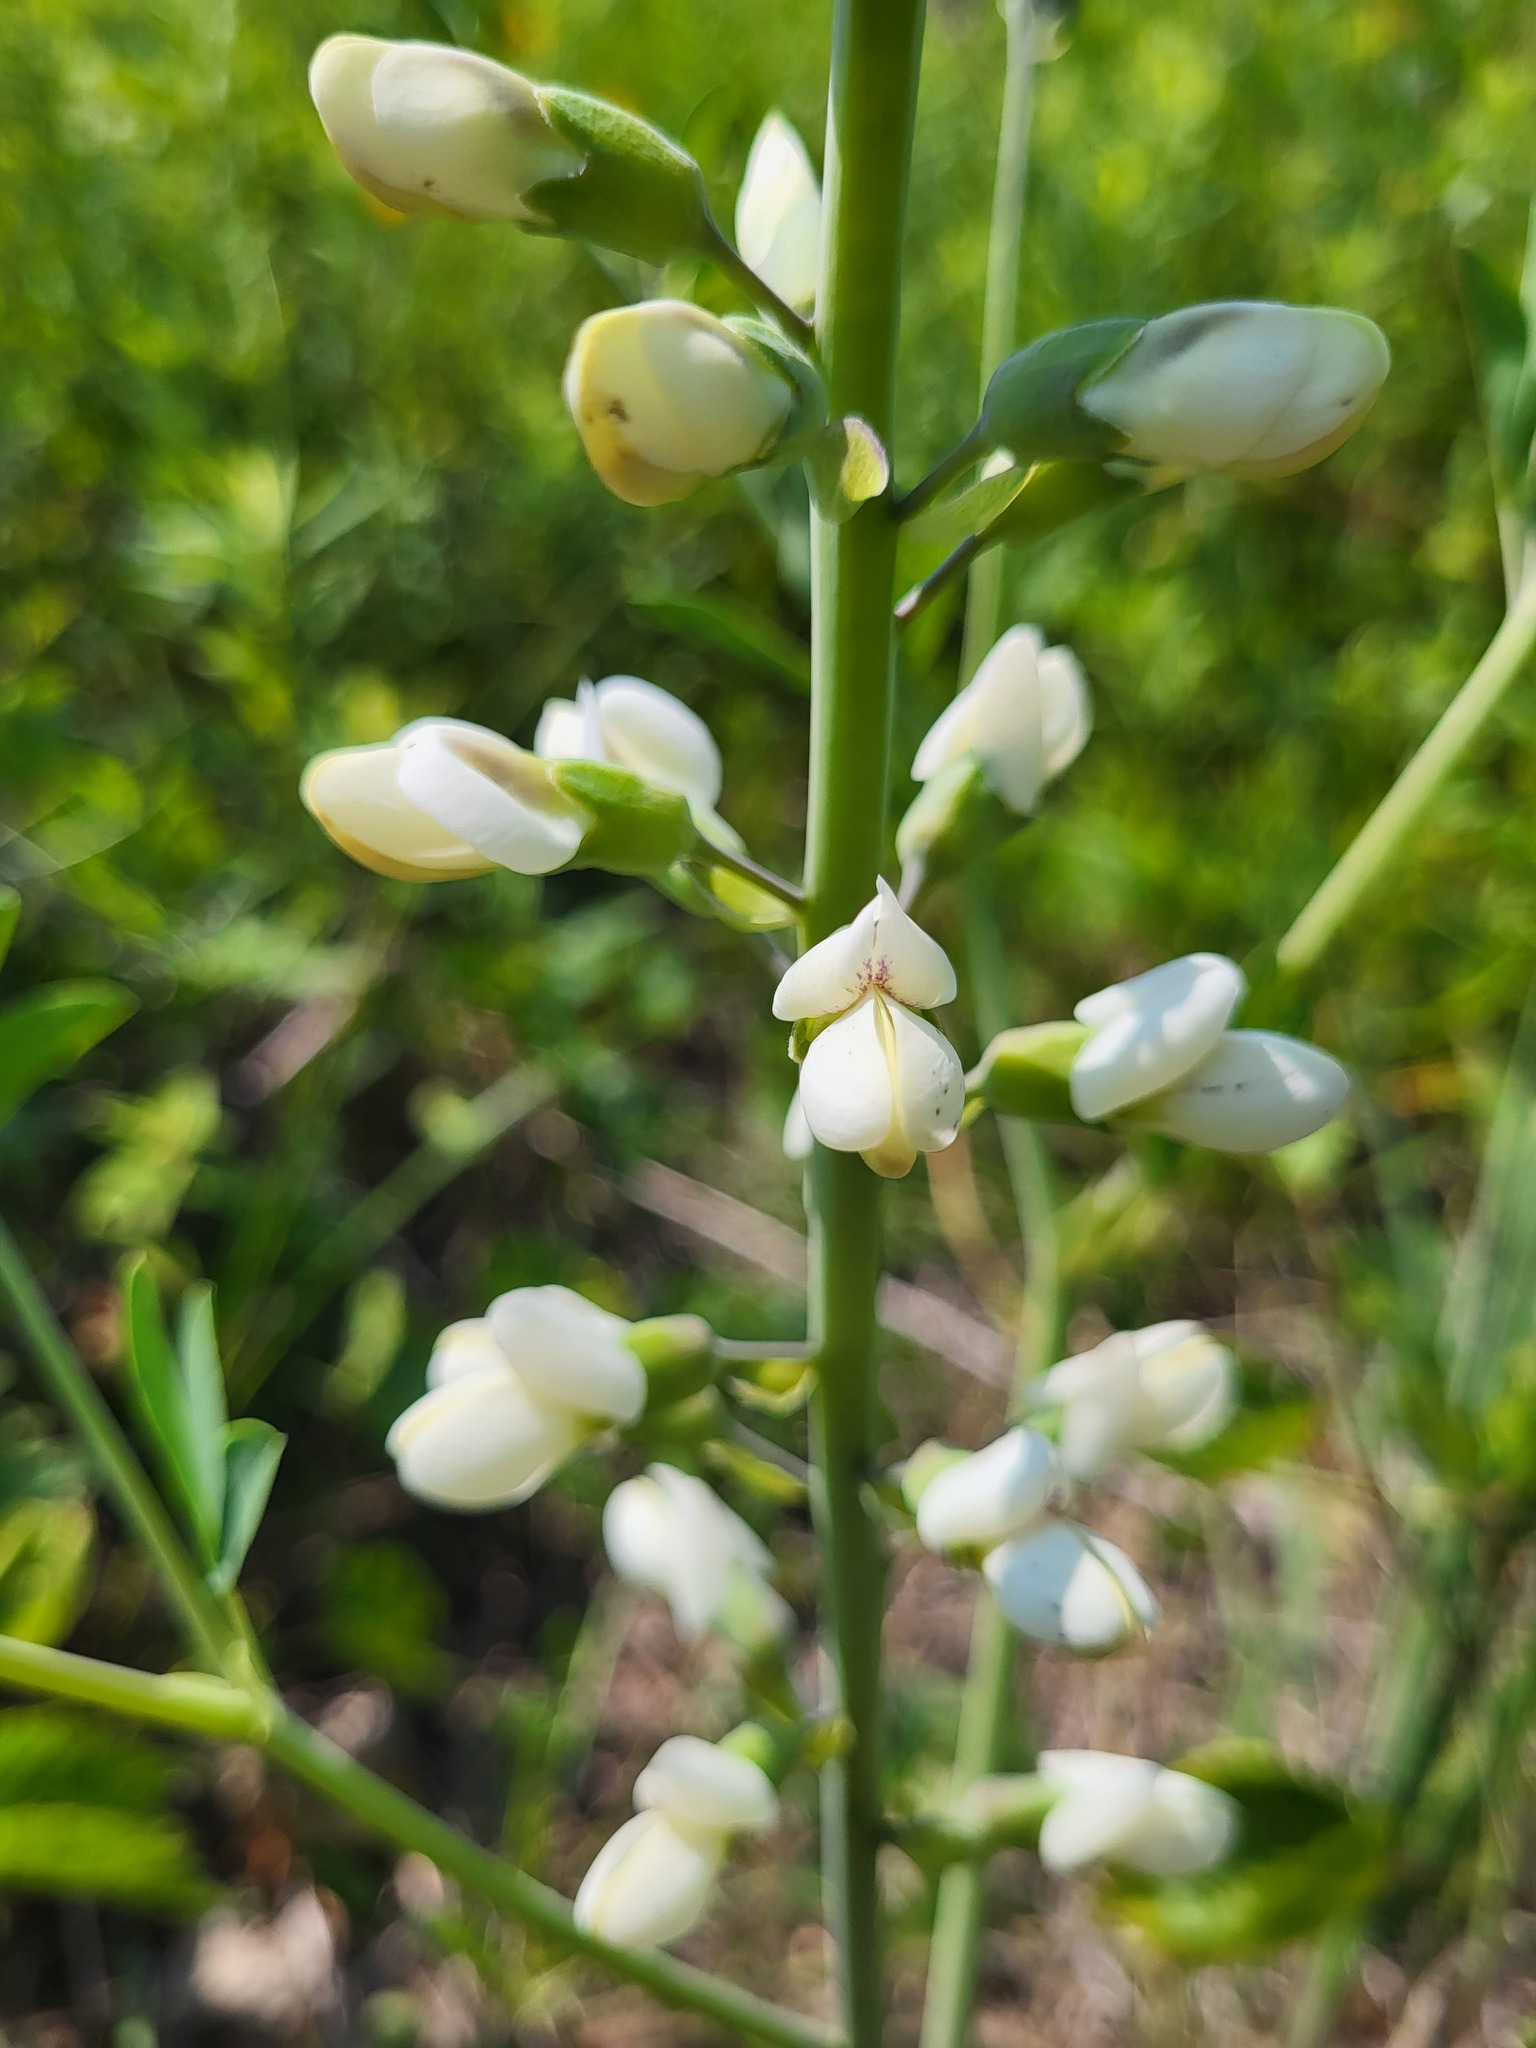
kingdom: Plantae
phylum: Tracheophyta
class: Magnoliopsida
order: Fabales
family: Fabaceae
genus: Baptisia
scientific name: Baptisia alba
